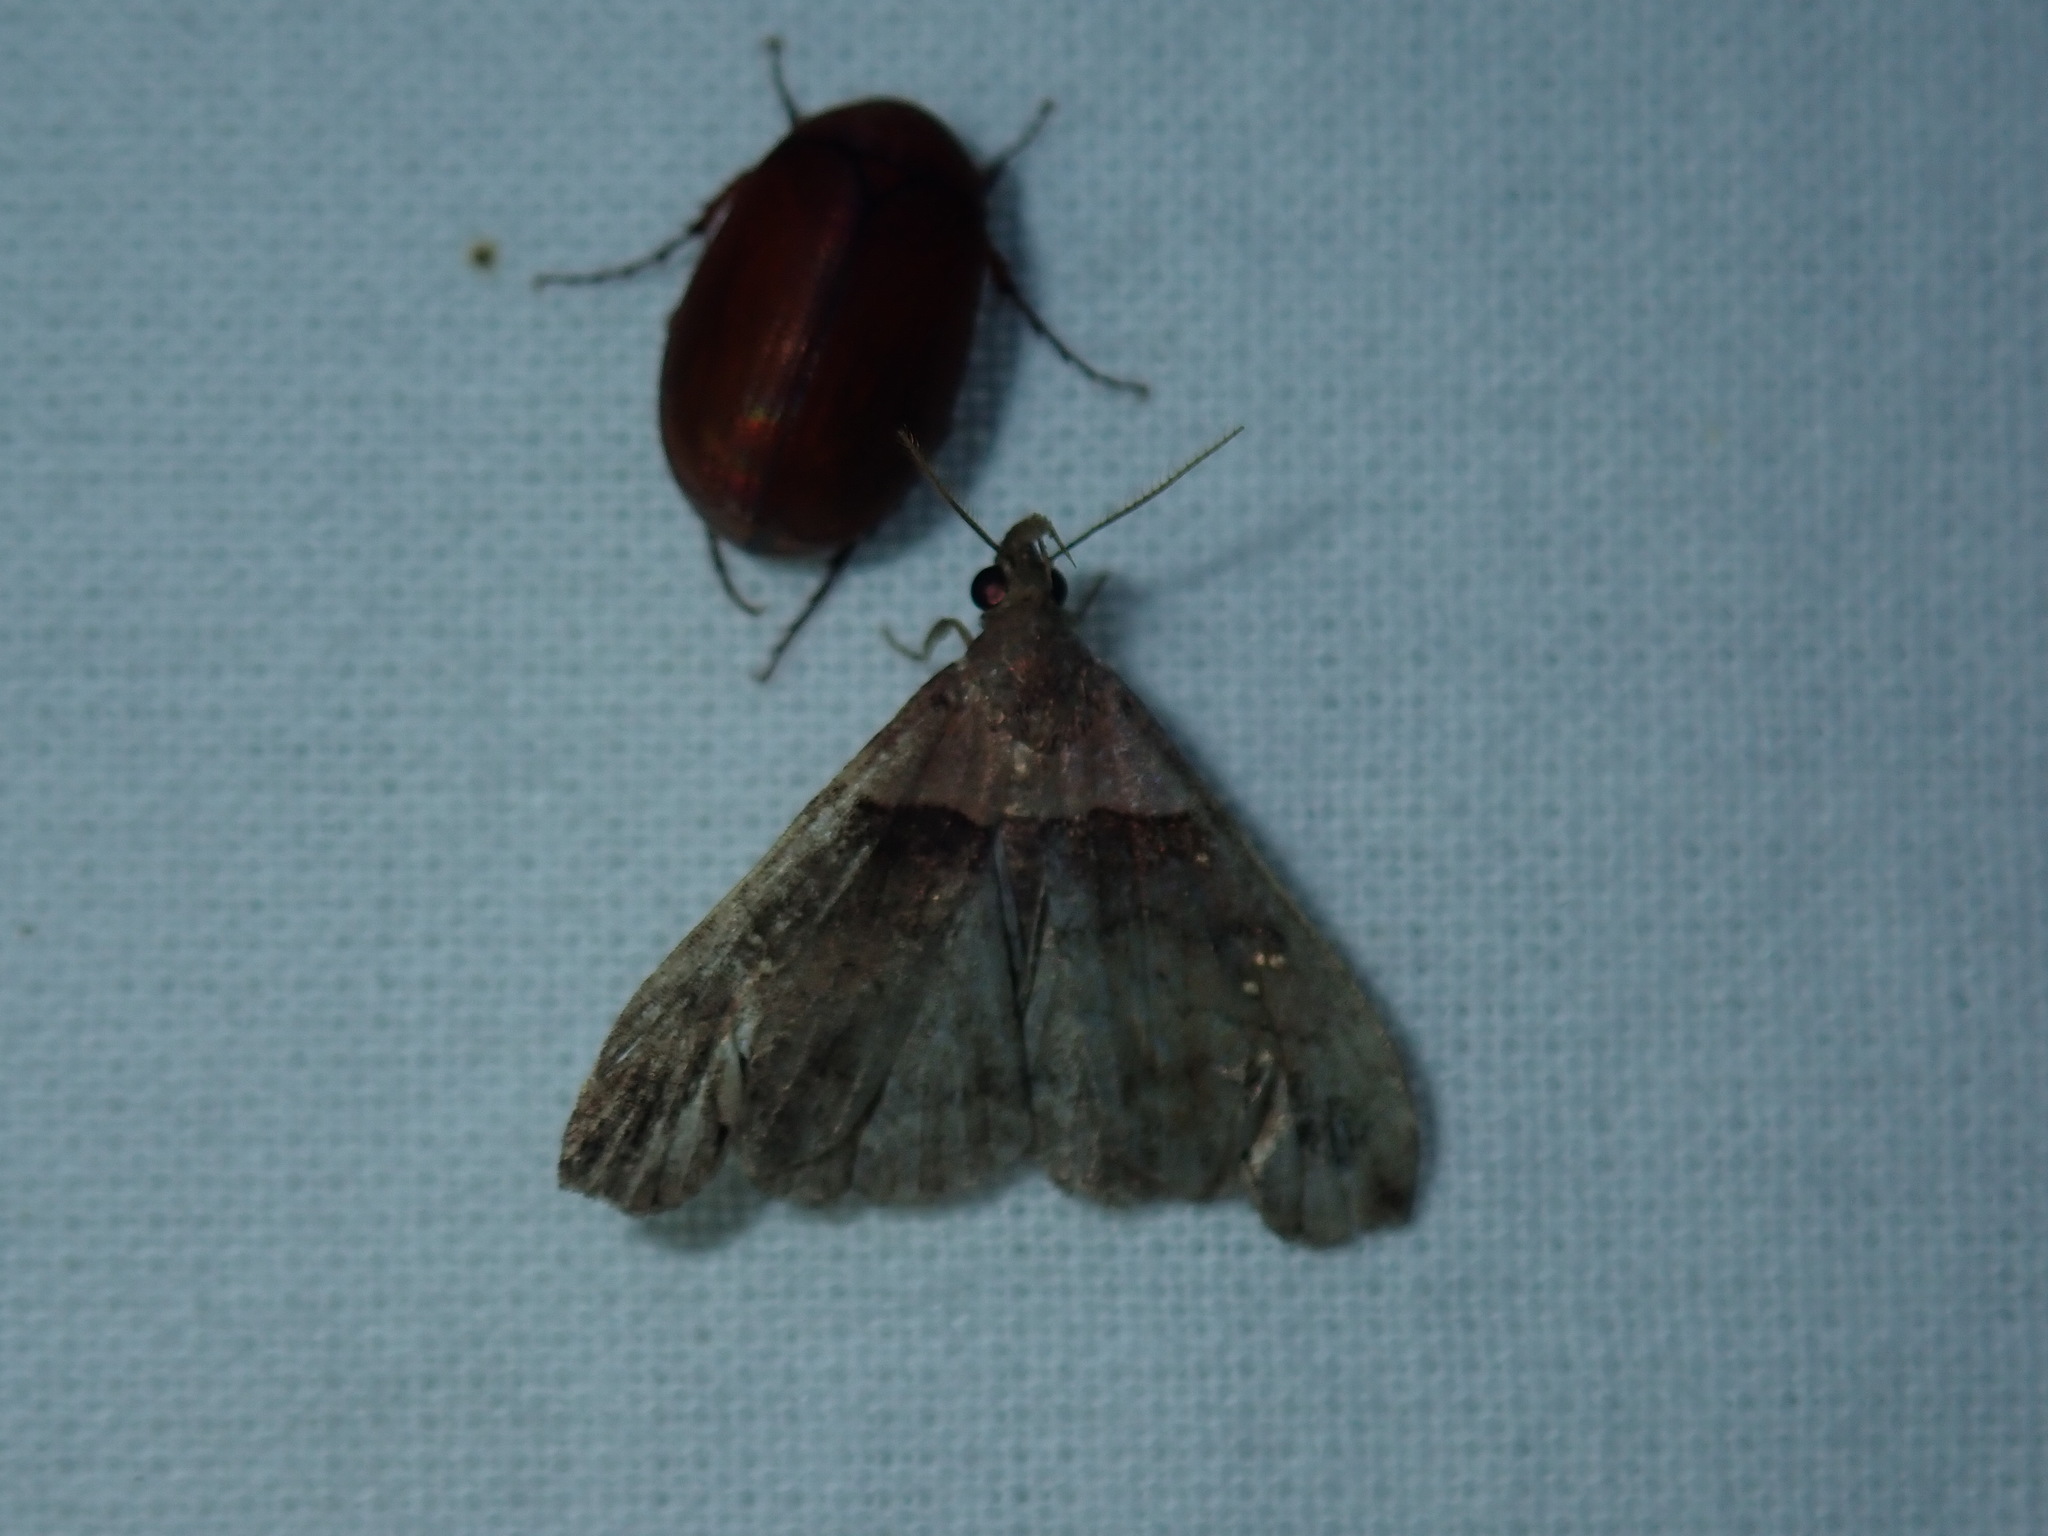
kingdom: Animalia
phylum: Arthropoda
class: Insecta
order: Lepidoptera
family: Erebidae
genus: Lascoria
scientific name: Lascoria ambigualis
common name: Ambiguous moth
